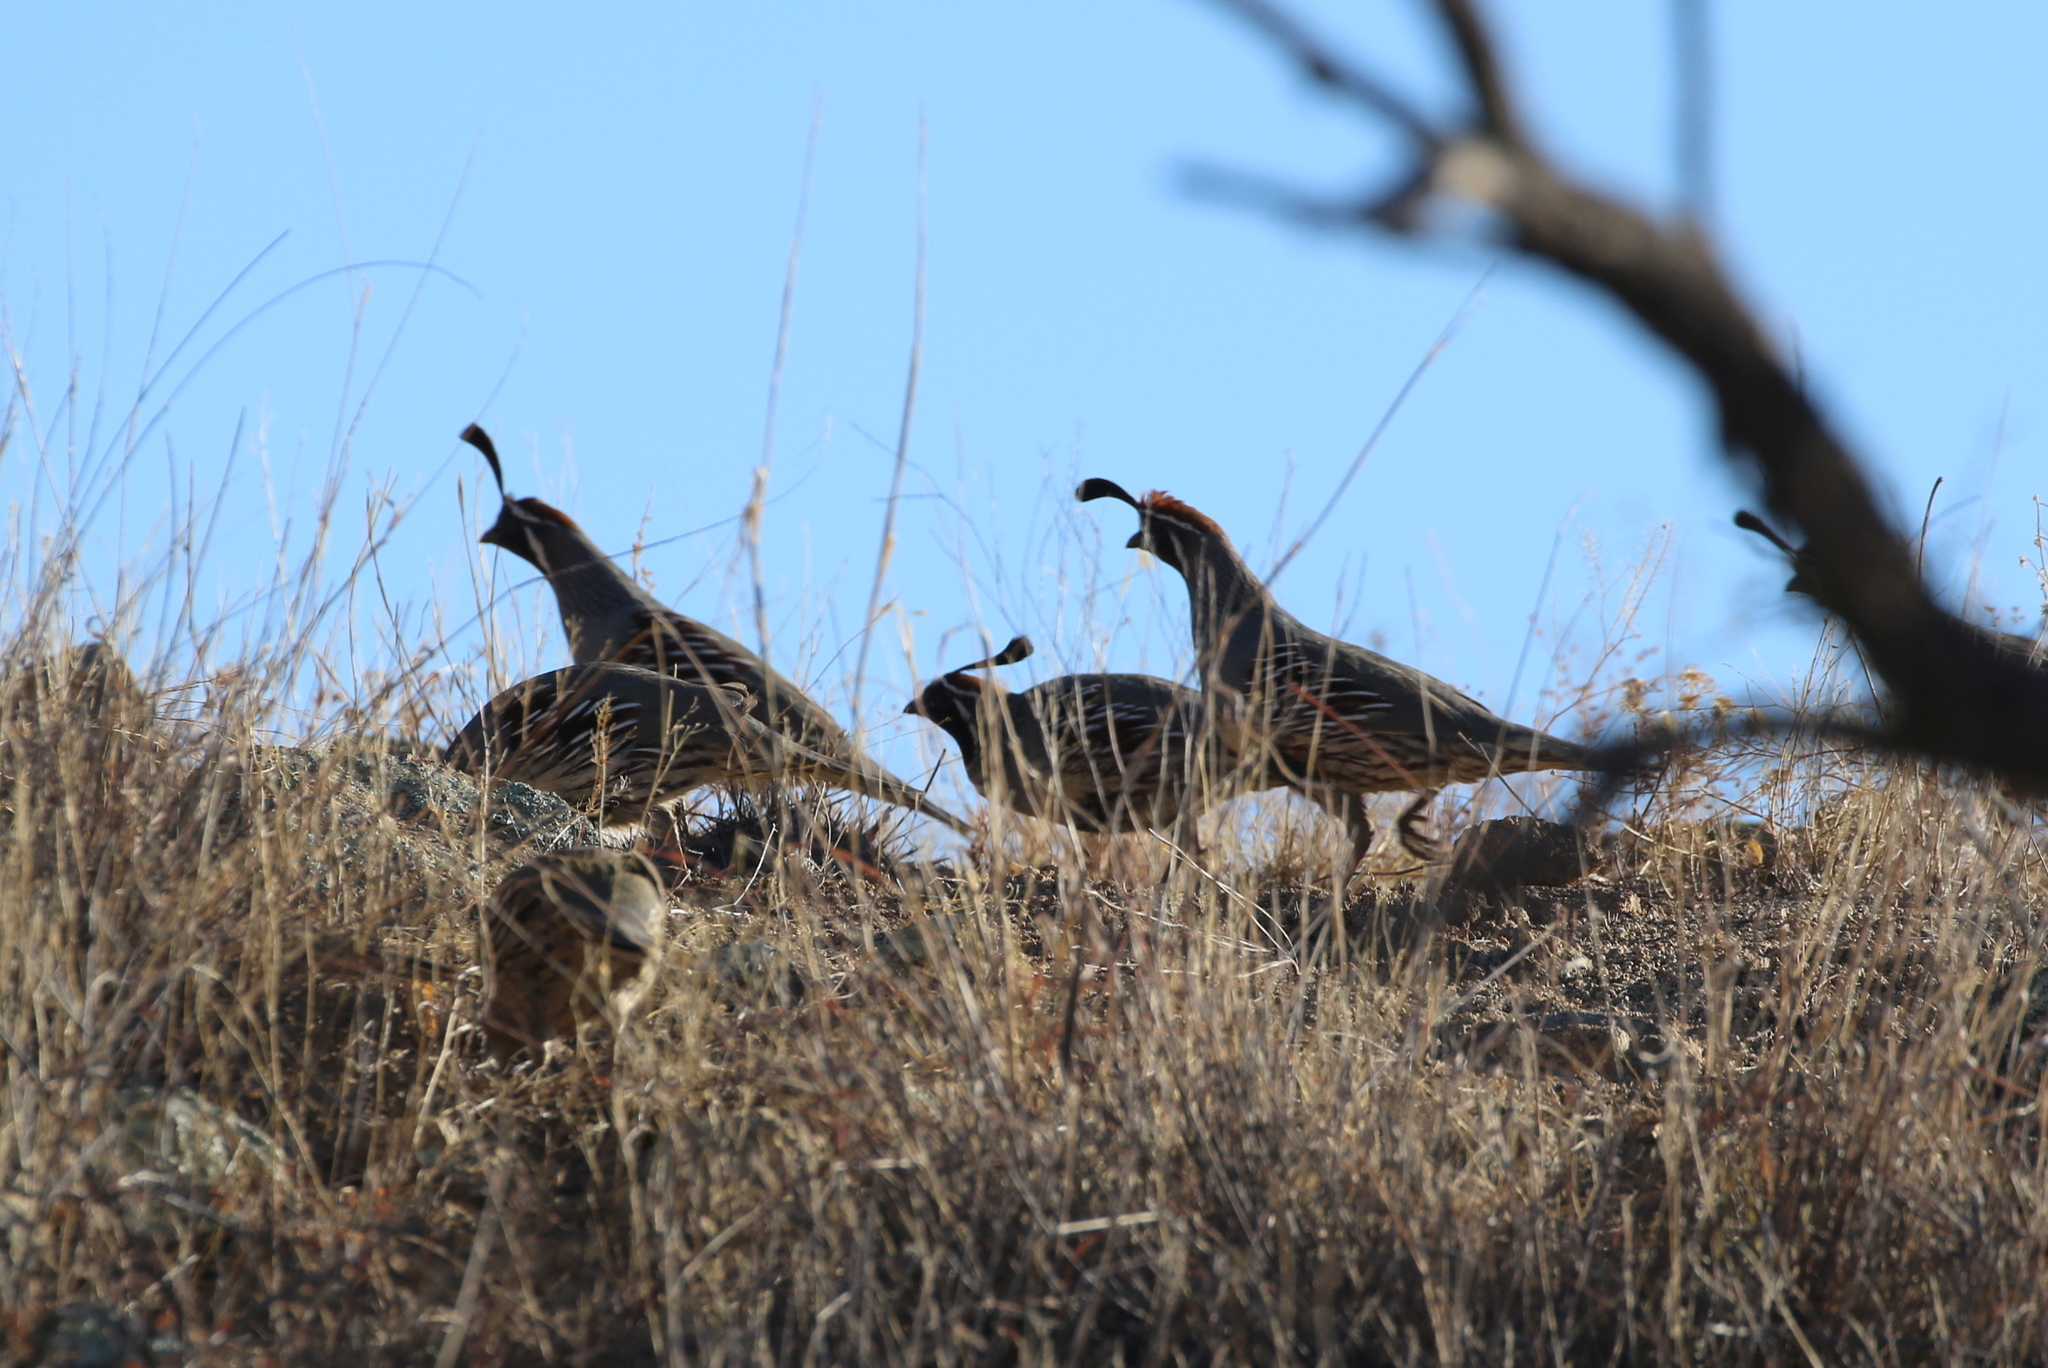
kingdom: Animalia
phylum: Chordata
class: Aves
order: Galliformes
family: Odontophoridae
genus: Callipepla
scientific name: Callipepla gambelii
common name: Gambel's quail
